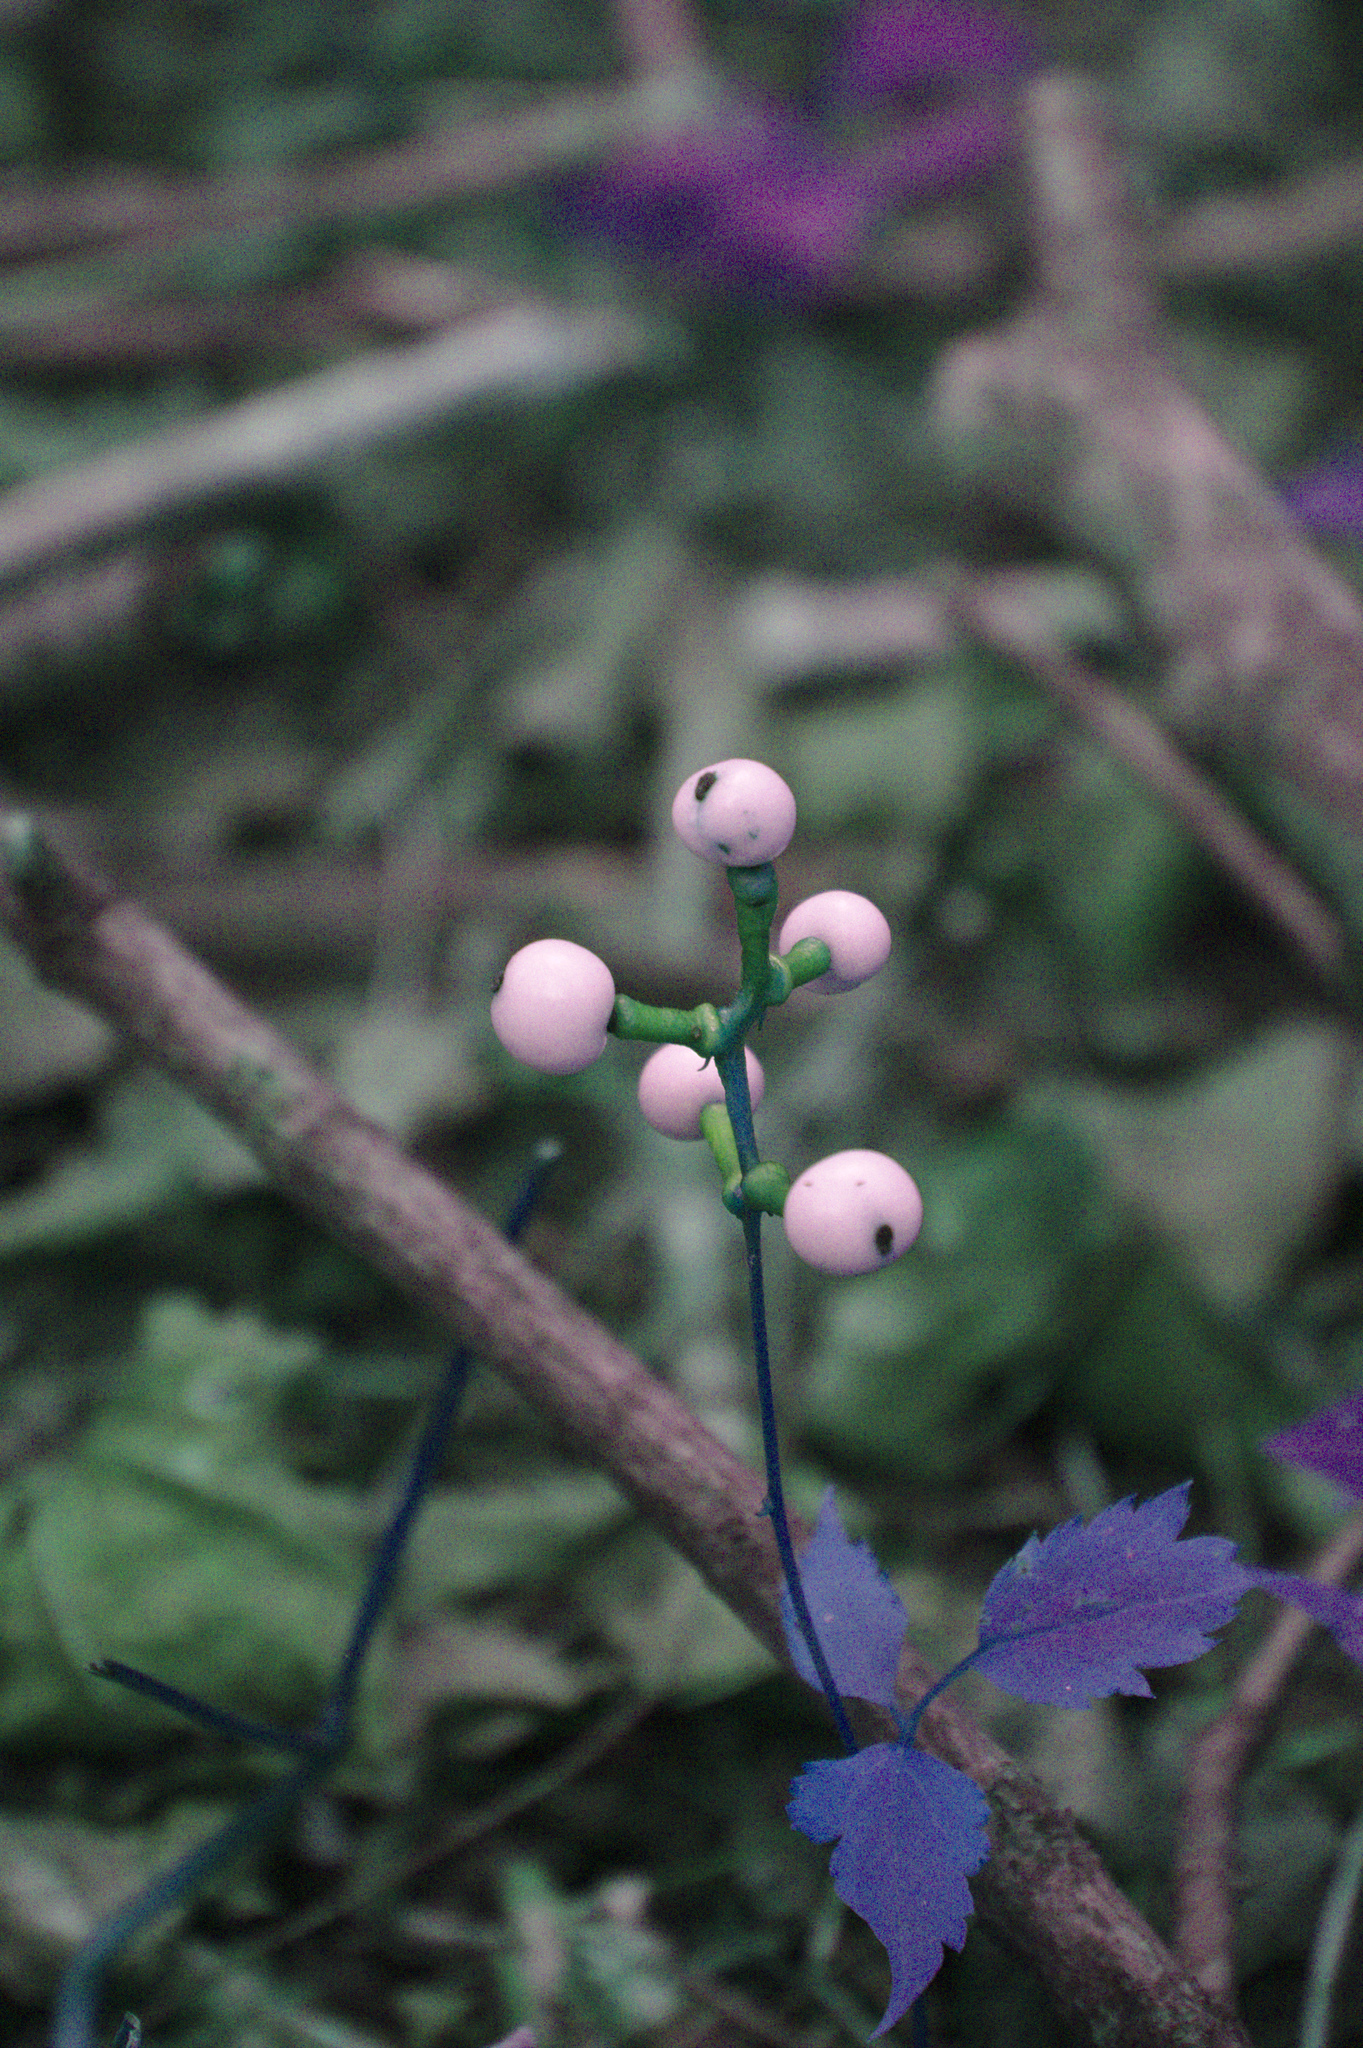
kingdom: Plantae
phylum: Tracheophyta
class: Magnoliopsida
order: Ranunculales
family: Ranunculaceae
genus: Actaea
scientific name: Actaea pachypoda
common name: Doll's-eyes
